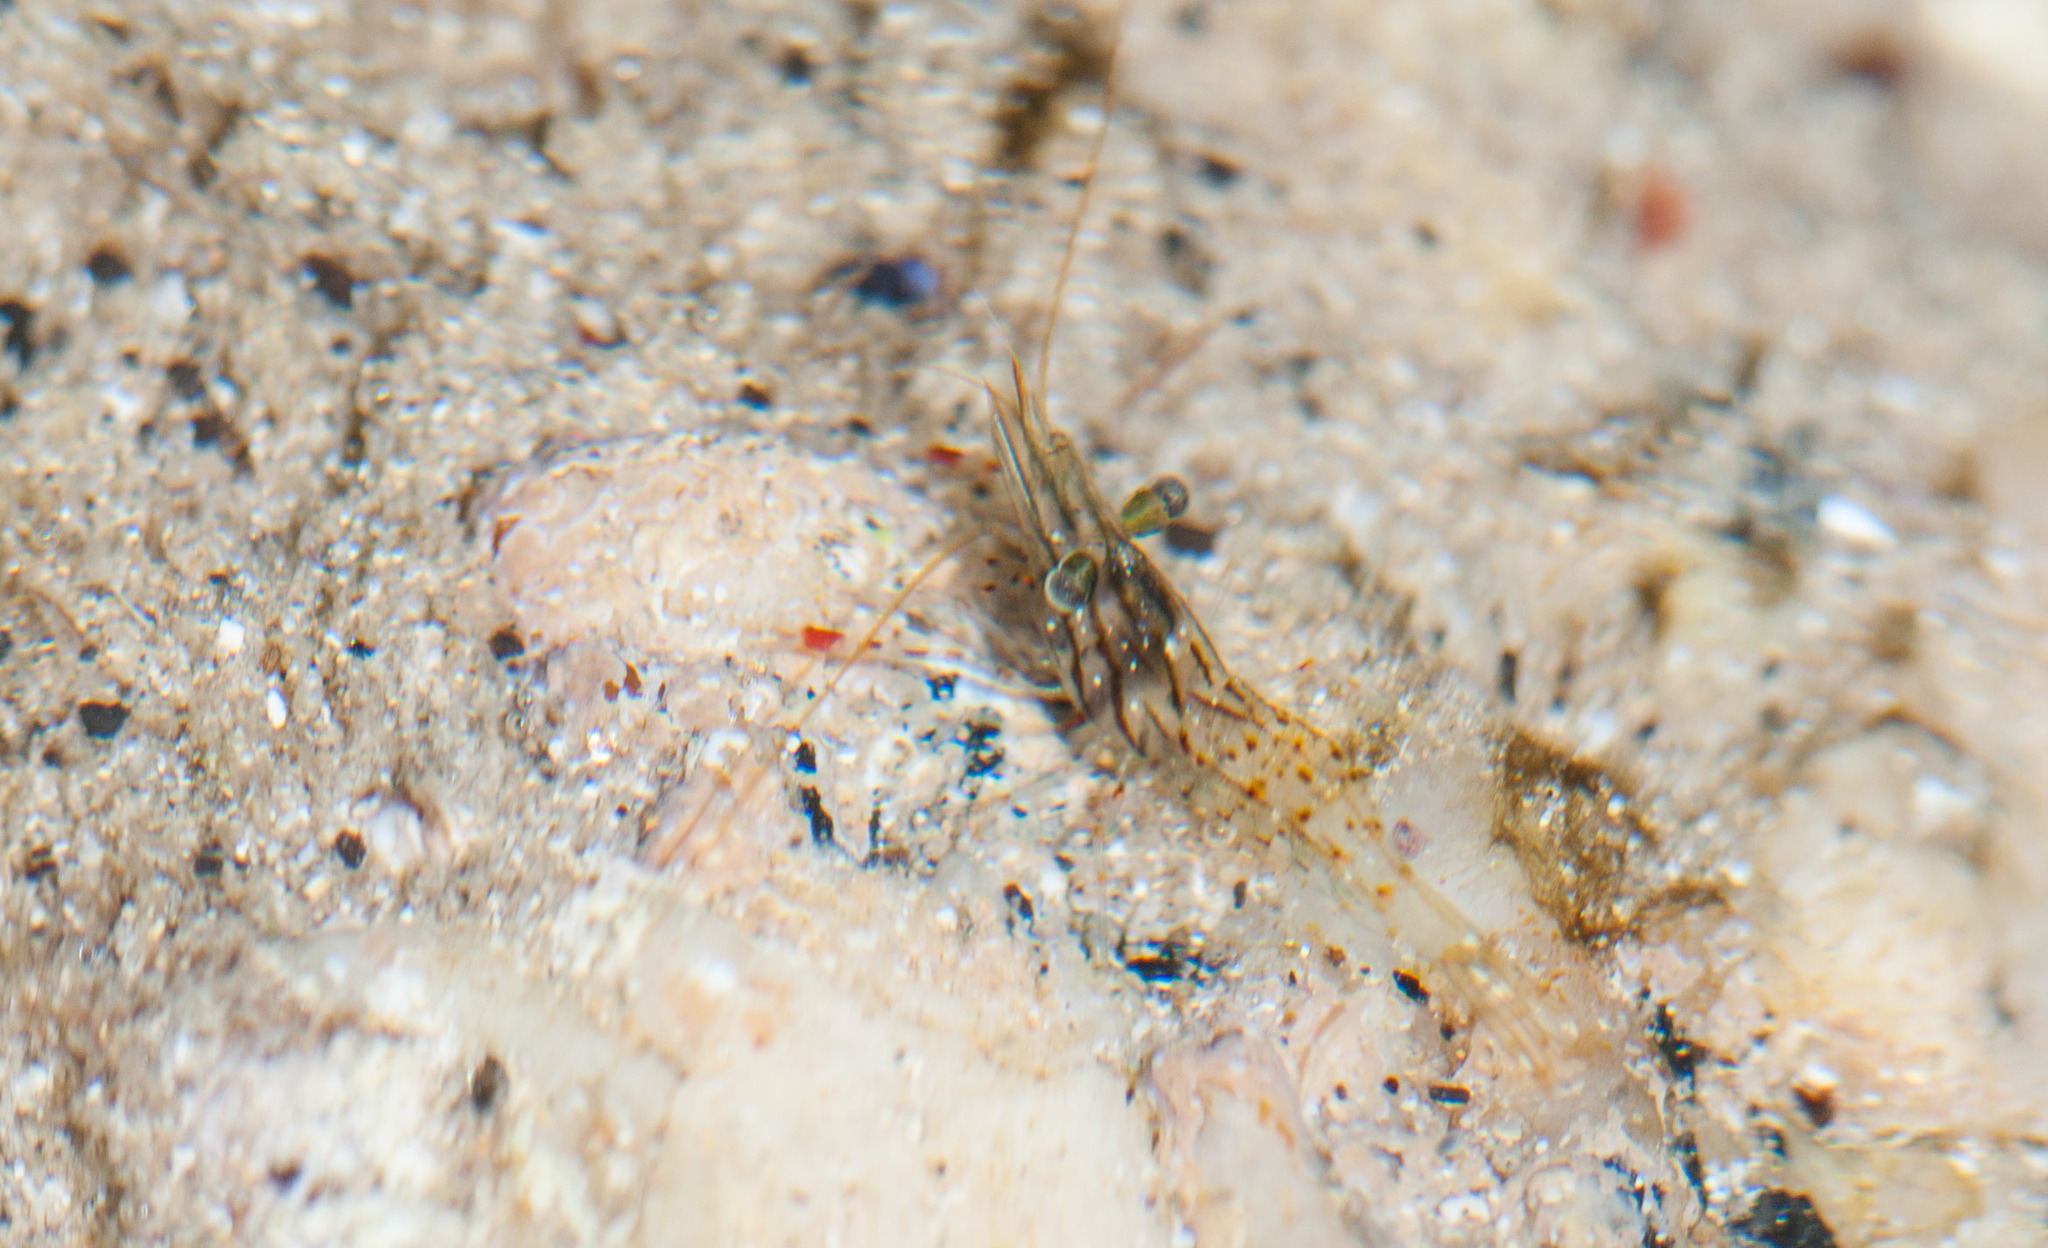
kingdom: Animalia
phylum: Arthropoda
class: Malacostraca
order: Decapoda
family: Palaemonidae
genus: Palaemon
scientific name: Palaemon serenus
